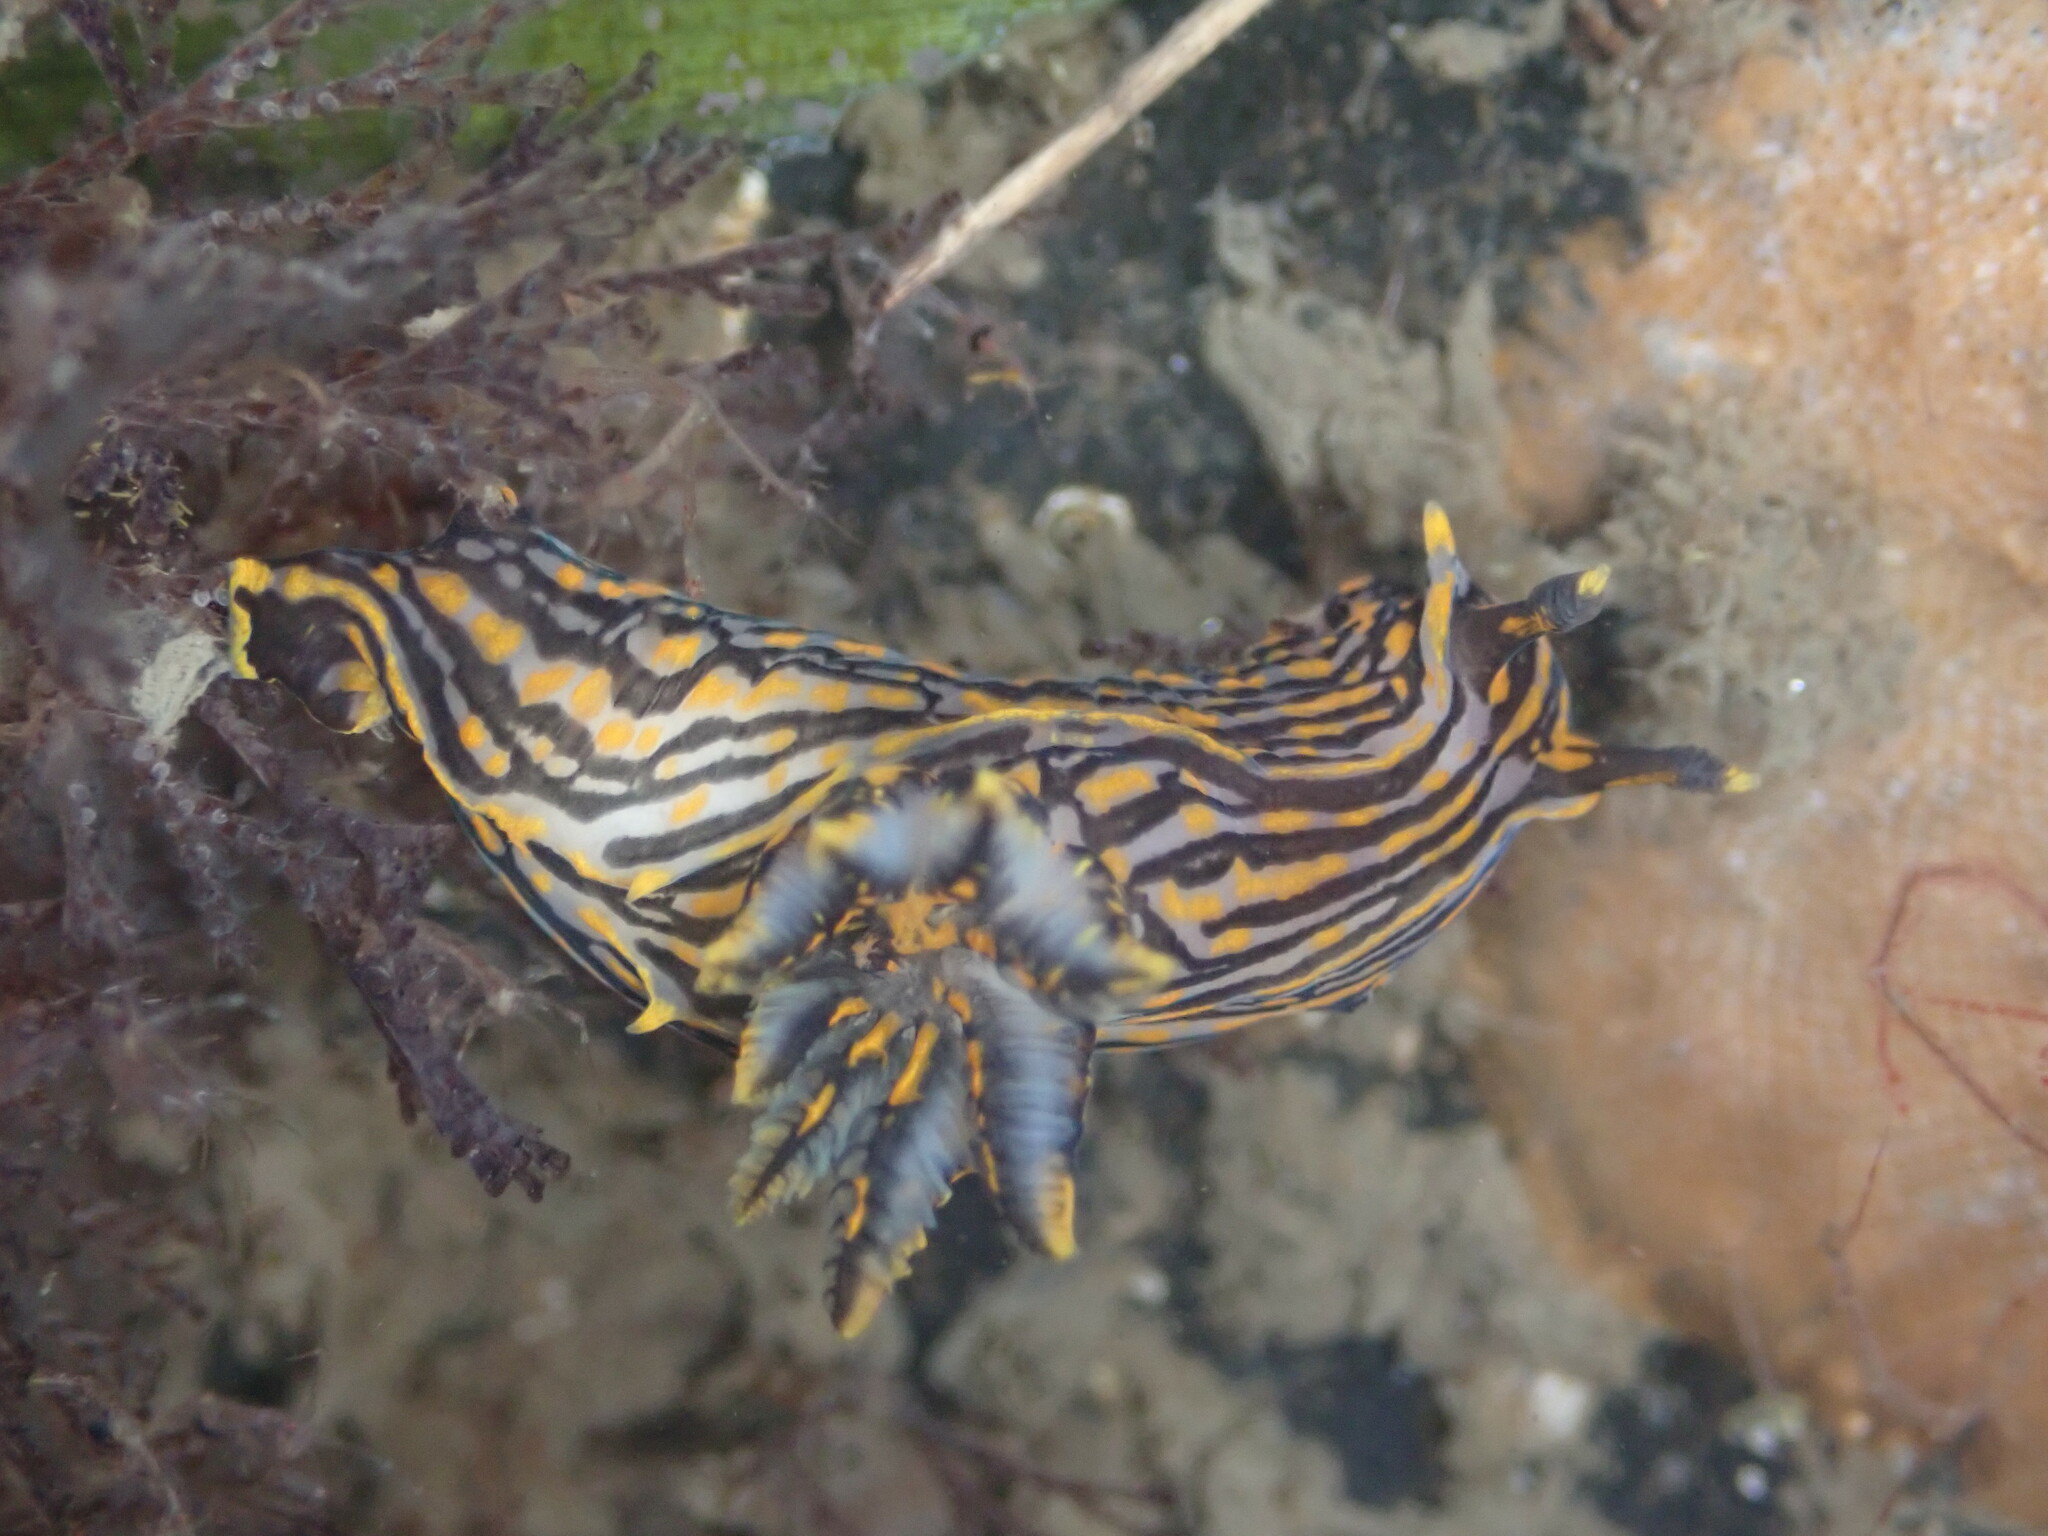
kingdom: Animalia
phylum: Mollusca
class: Gastropoda
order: Nudibranchia
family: Polyceridae
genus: Polycera
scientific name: Polycera atra
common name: Orange-spike polycera
